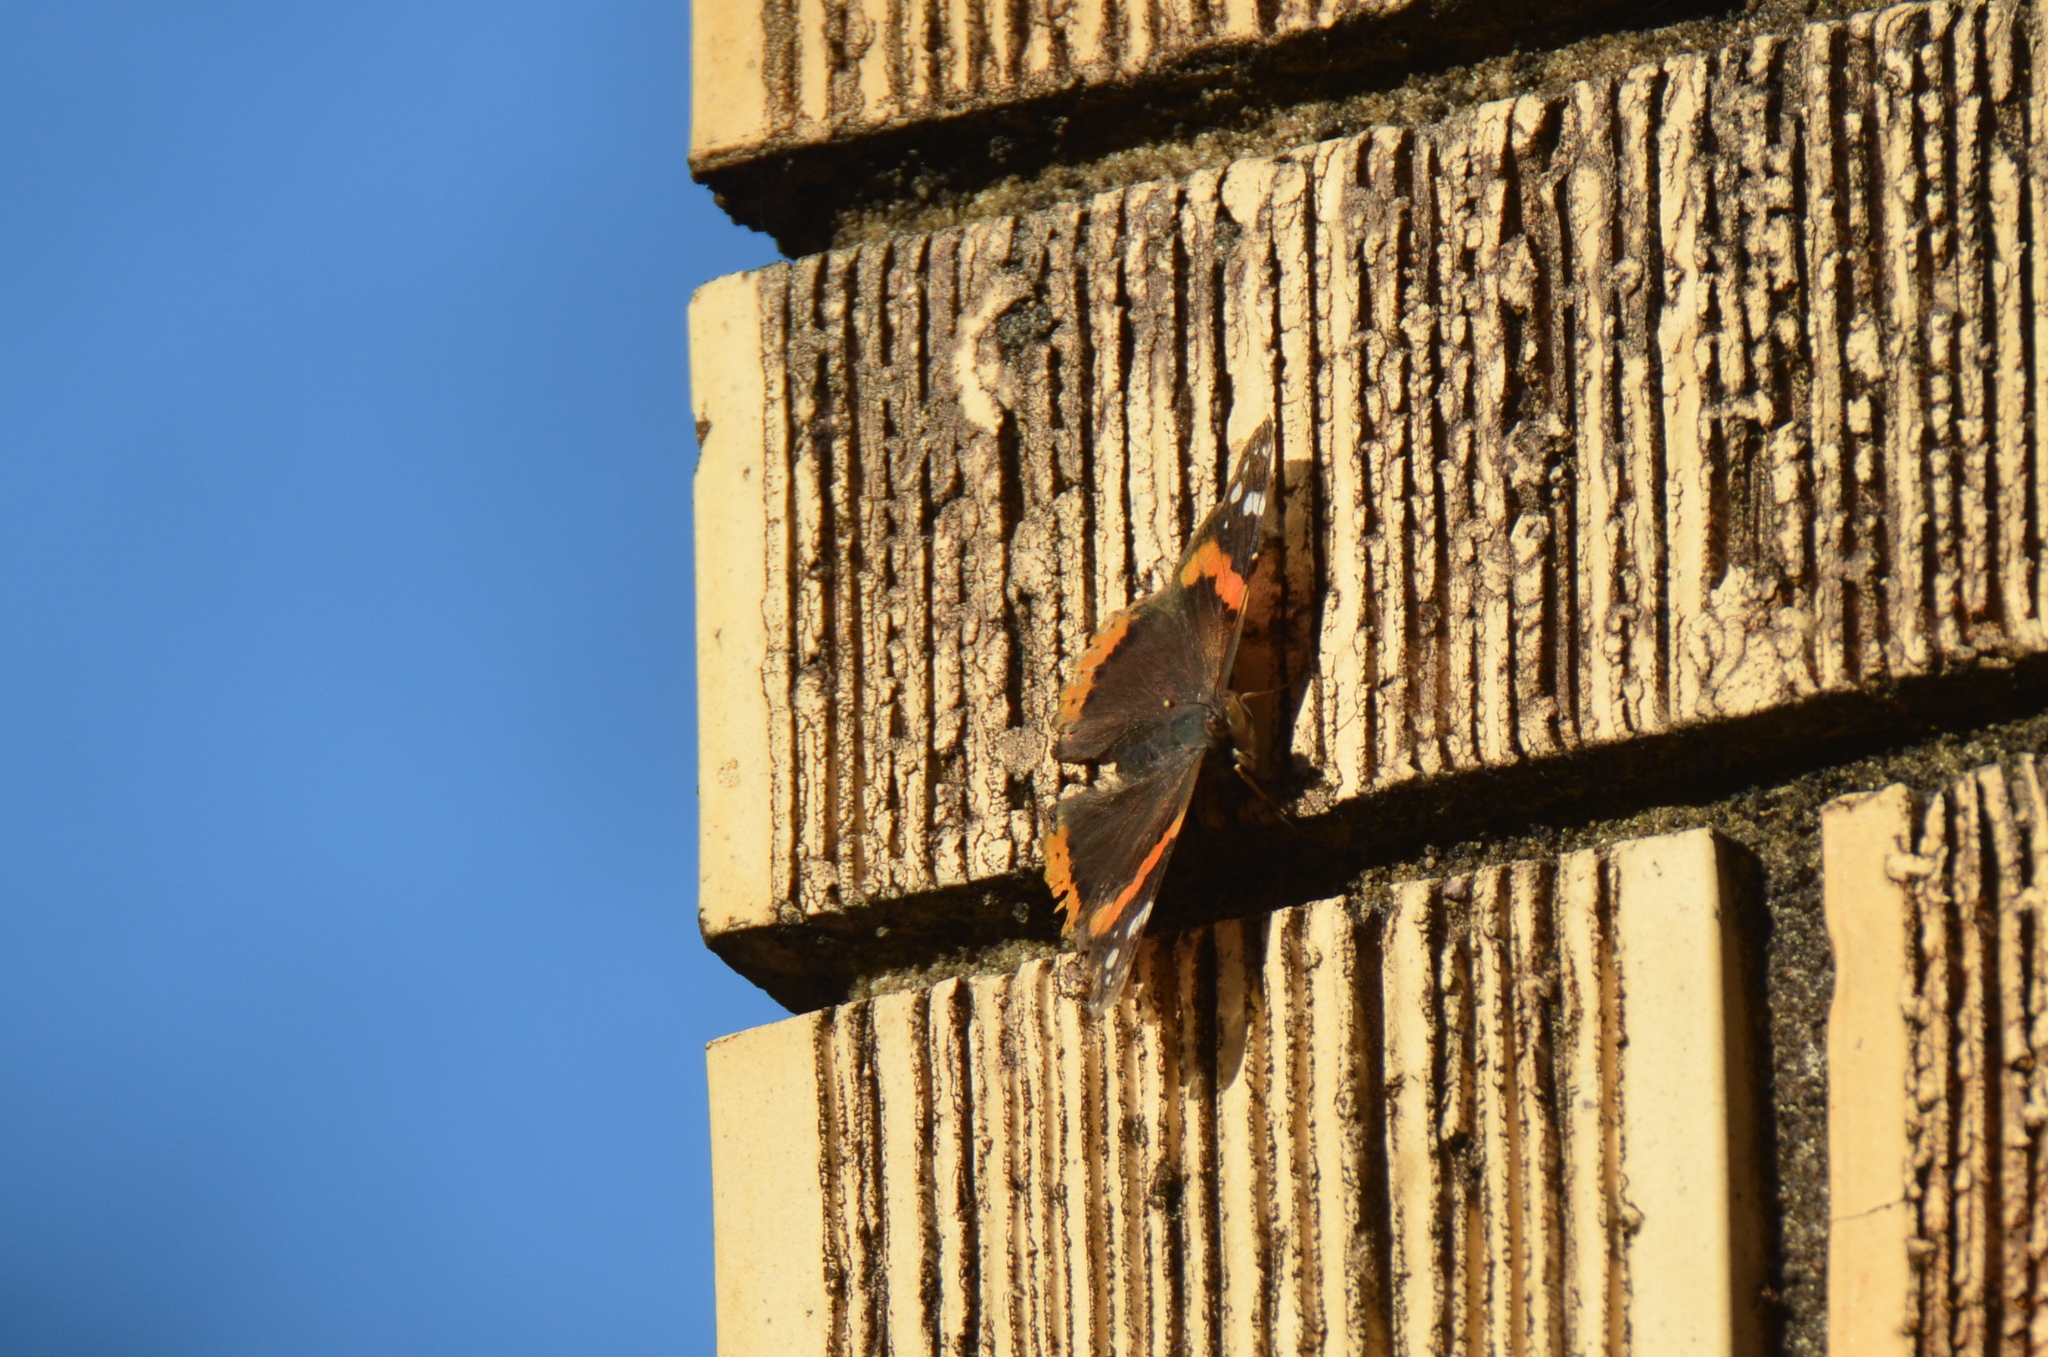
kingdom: Animalia
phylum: Arthropoda
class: Insecta
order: Lepidoptera
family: Nymphalidae
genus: Vanessa
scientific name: Vanessa atalanta
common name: Red admiral
